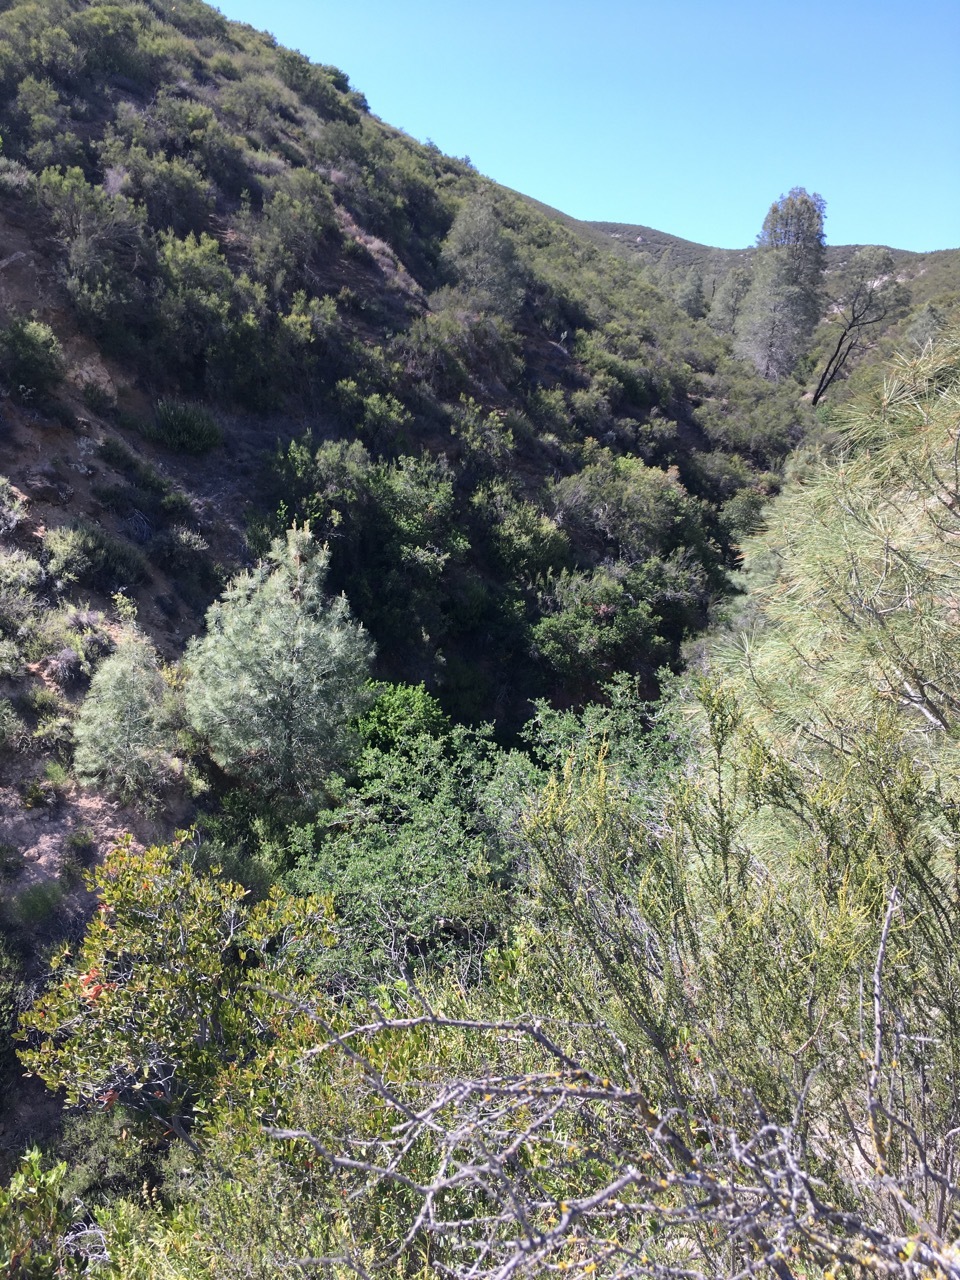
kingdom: Plantae
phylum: Tracheophyta
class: Pinopsida
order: Pinales
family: Pinaceae
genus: Pinus
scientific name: Pinus sabiniana
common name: Bull pine
